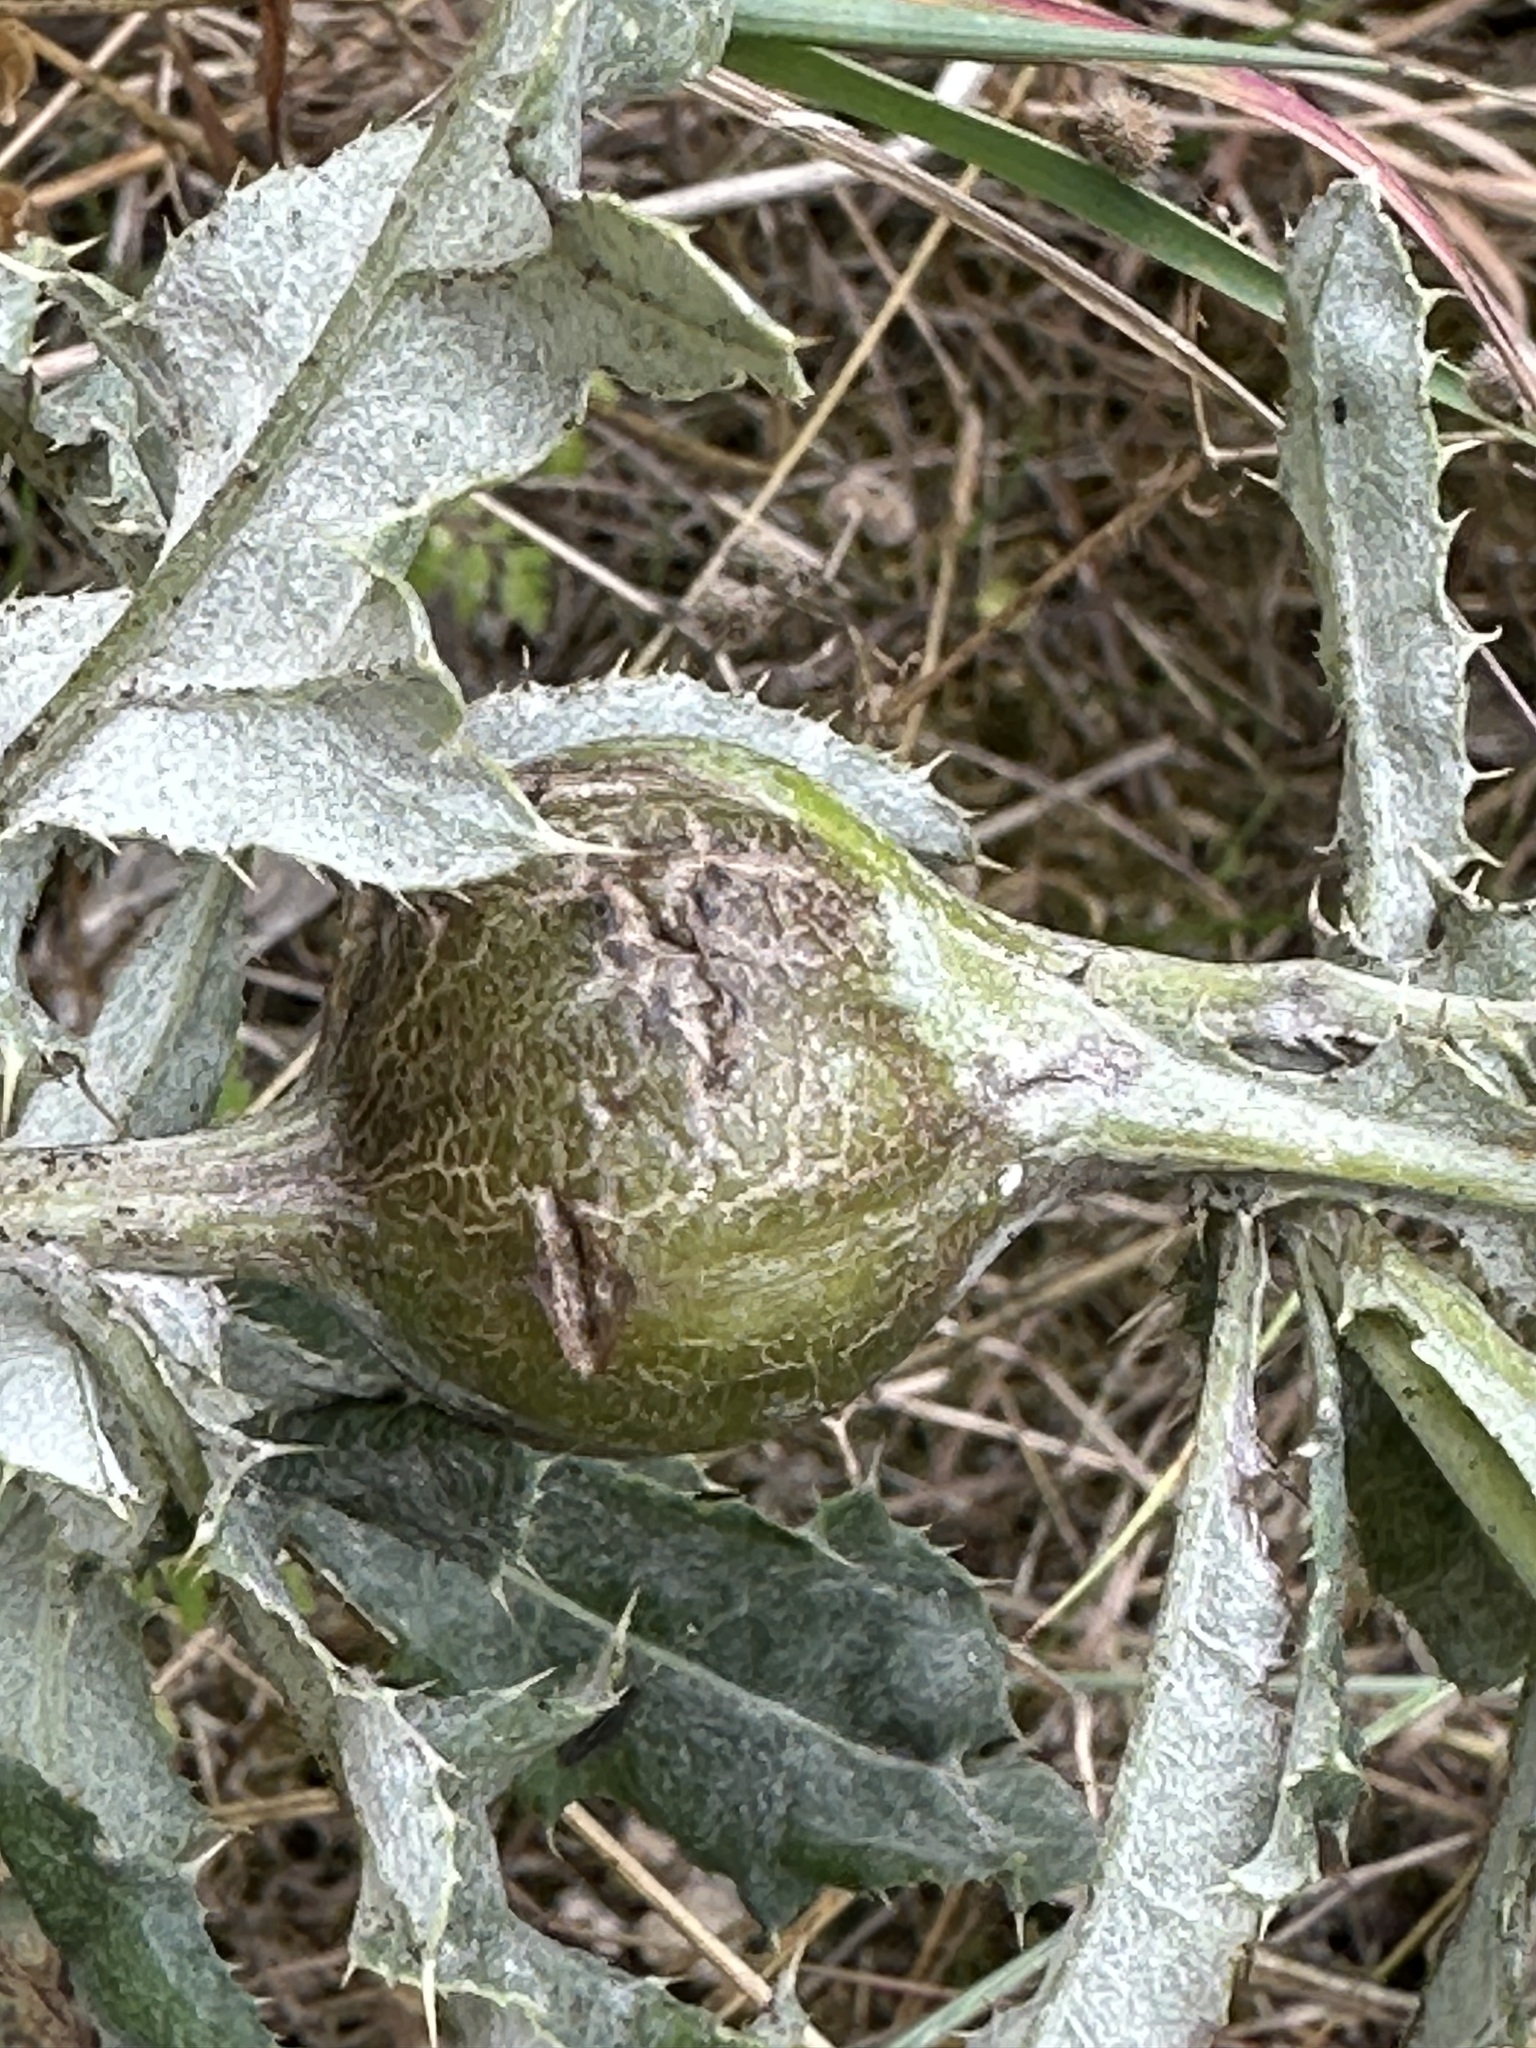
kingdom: Animalia
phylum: Arthropoda
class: Insecta
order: Diptera
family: Tephritidae
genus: Urophora
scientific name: Urophora cardui
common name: Fruit fly
